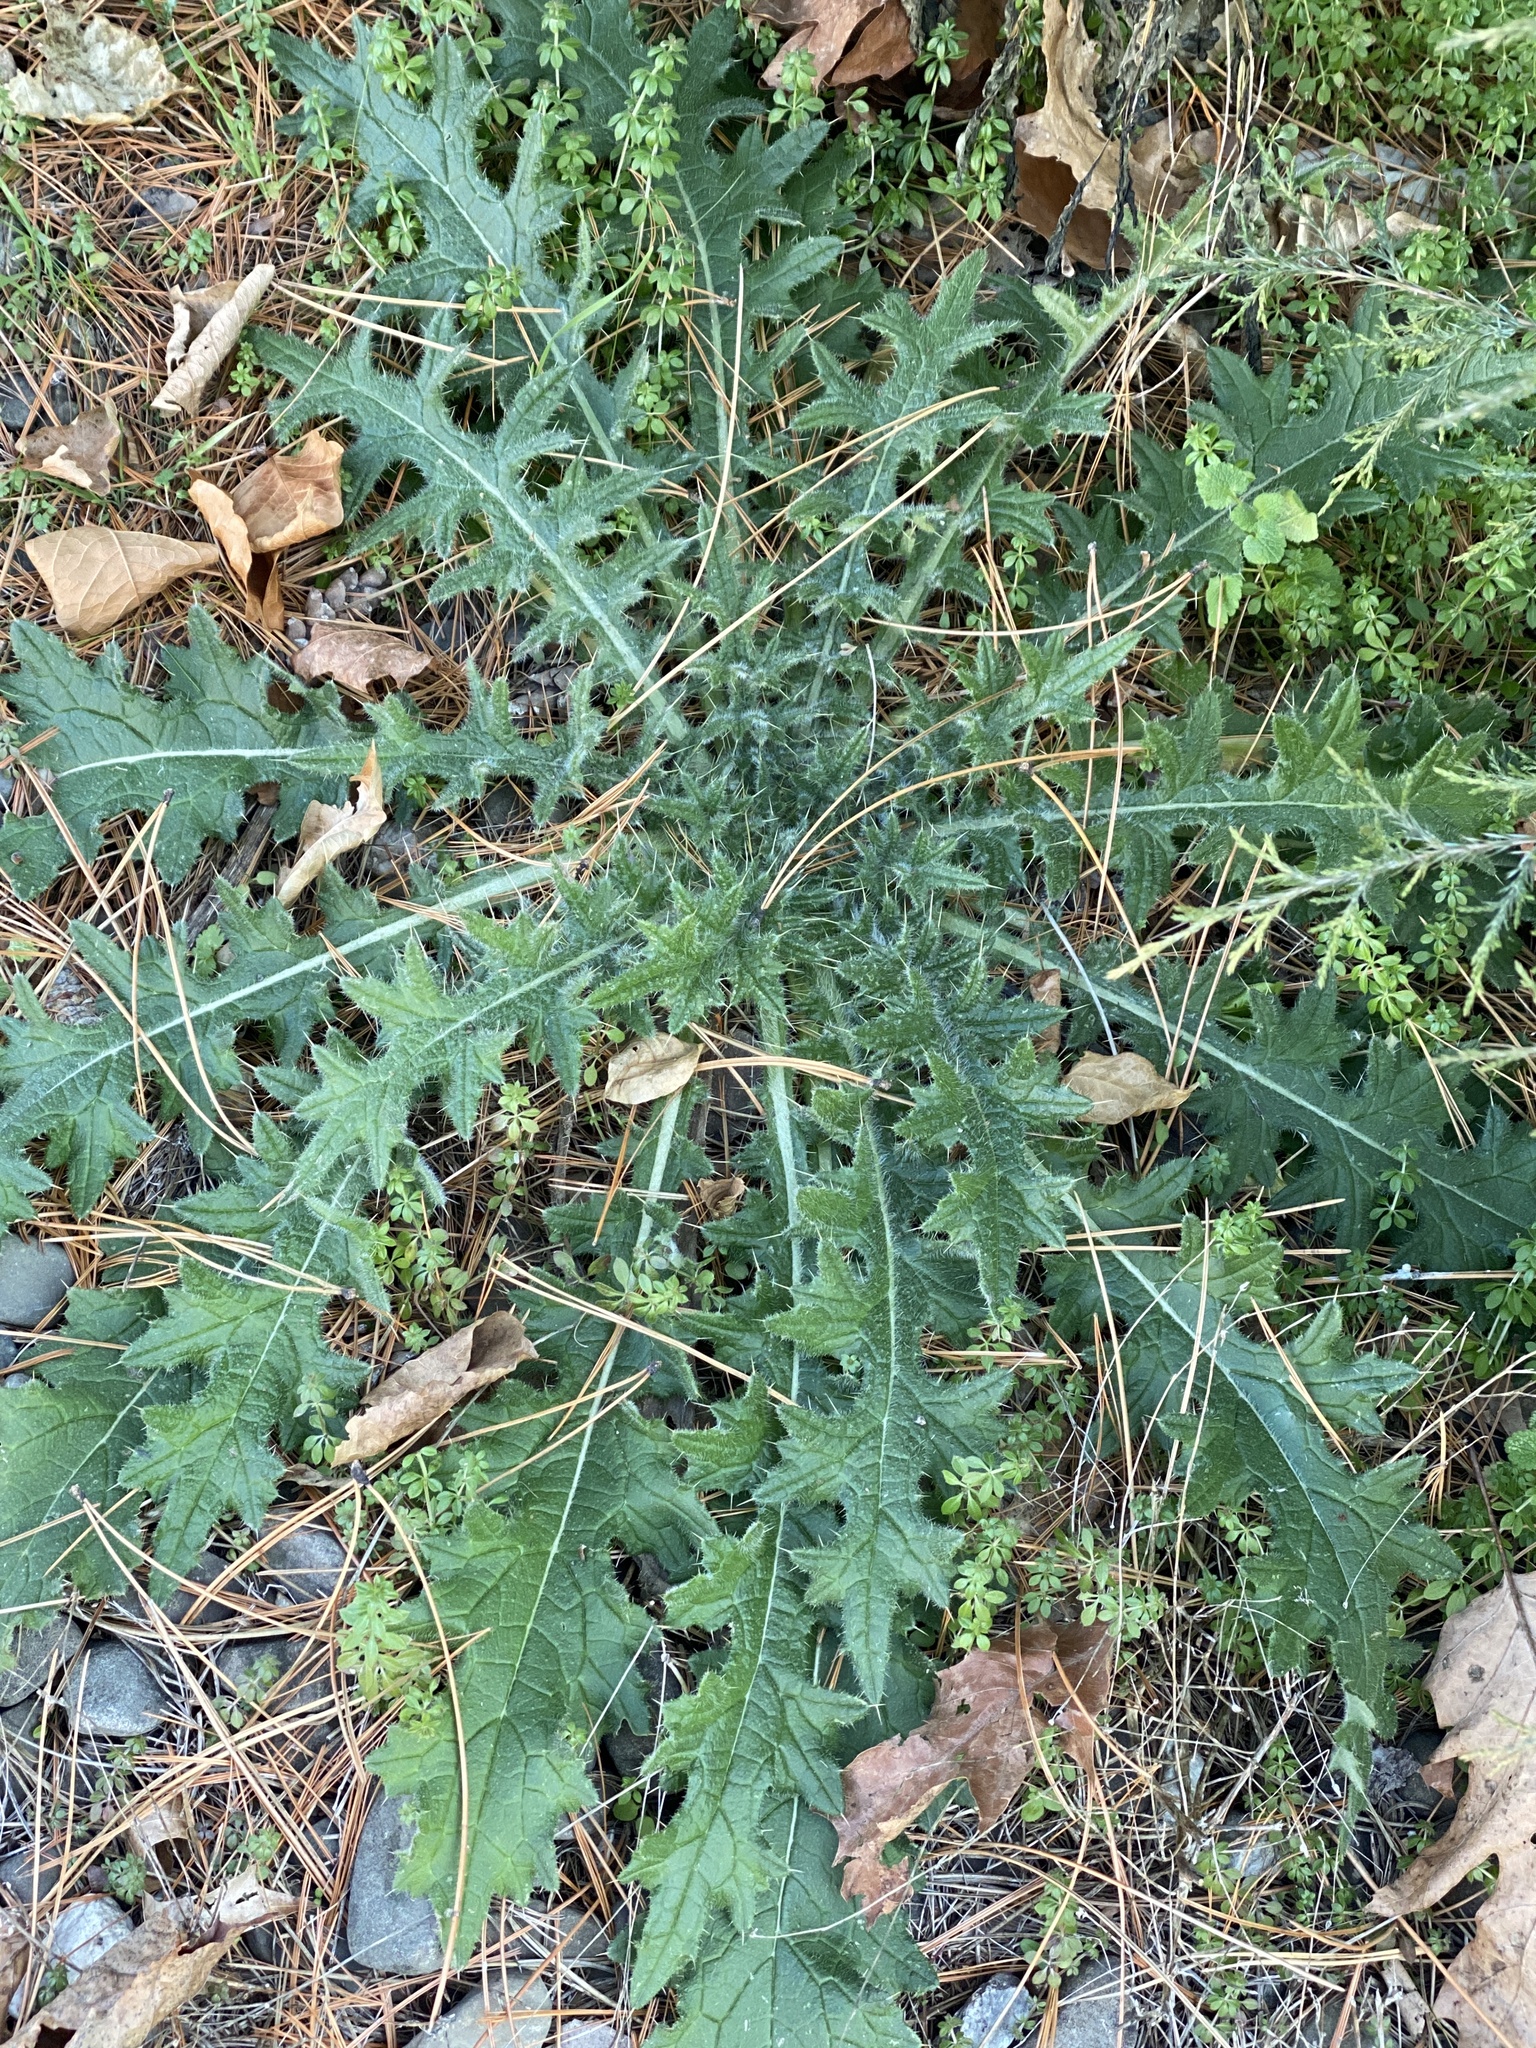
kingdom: Plantae
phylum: Tracheophyta
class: Magnoliopsida
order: Asterales
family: Asteraceae
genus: Cirsium
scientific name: Cirsium vulgare
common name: Bull thistle
